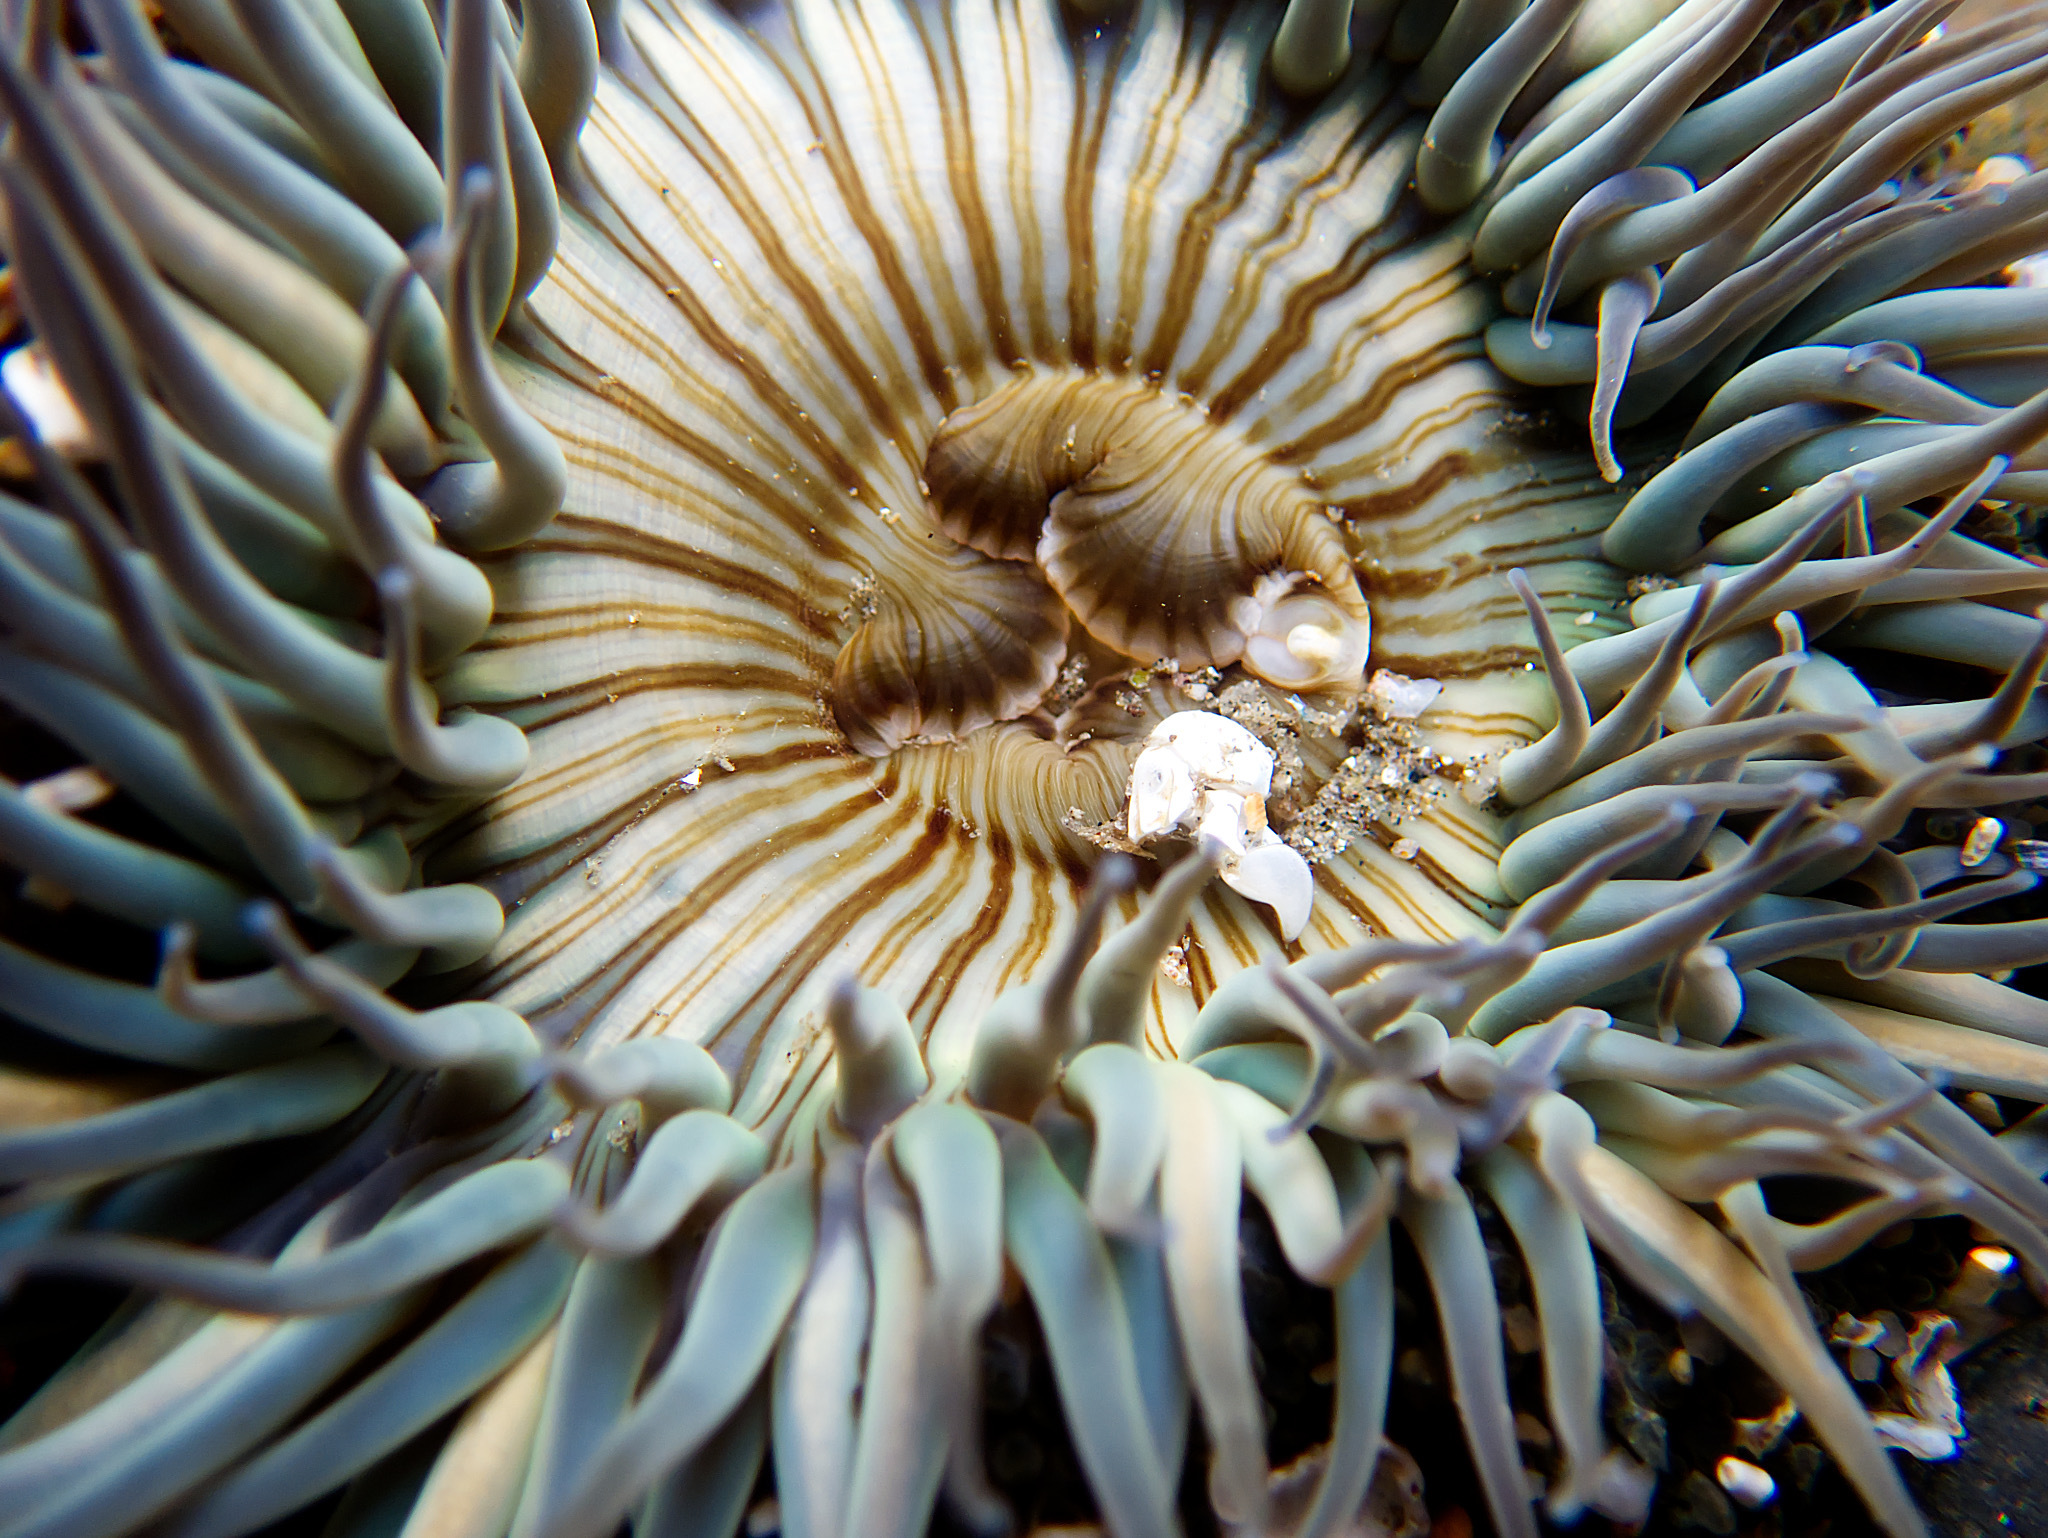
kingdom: Animalia
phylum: Cnidaria
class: Anthozoa
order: Actiniaria
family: Actiniidae
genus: Anthopleura
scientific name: Anthopleura sola
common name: Sun anemone
